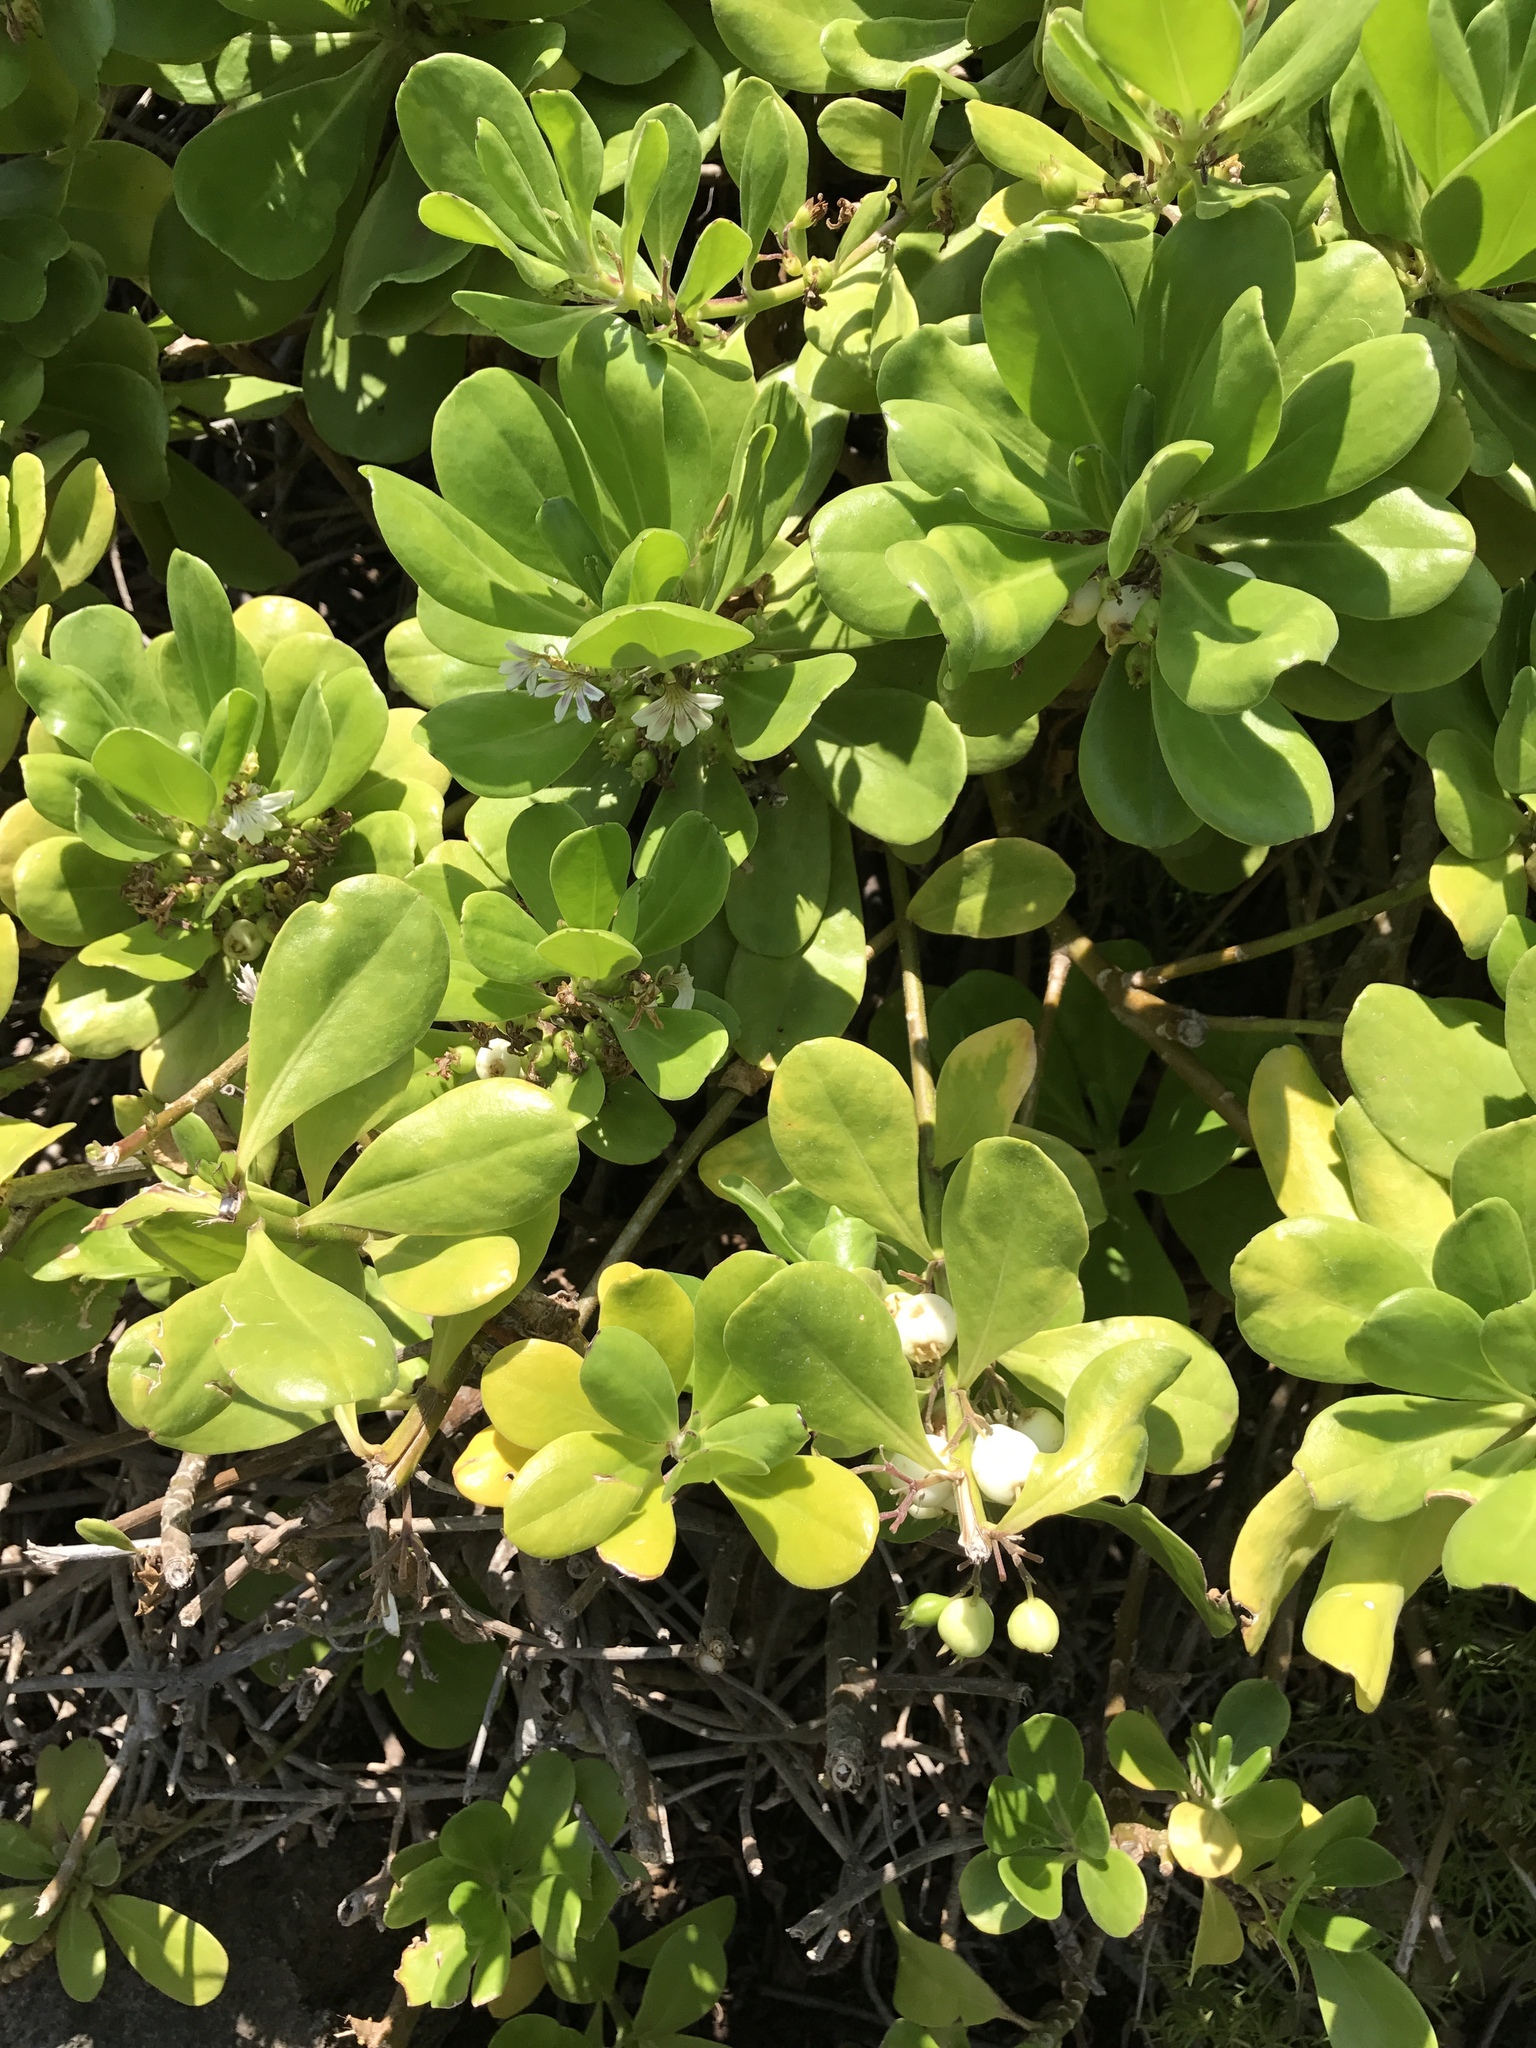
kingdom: Plantae
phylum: Tracheophyta
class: Magnoliopsida
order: Asterales
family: Goodeniaceae
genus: Scaevola
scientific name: Scaevola taccada
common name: Sea lettucetree
